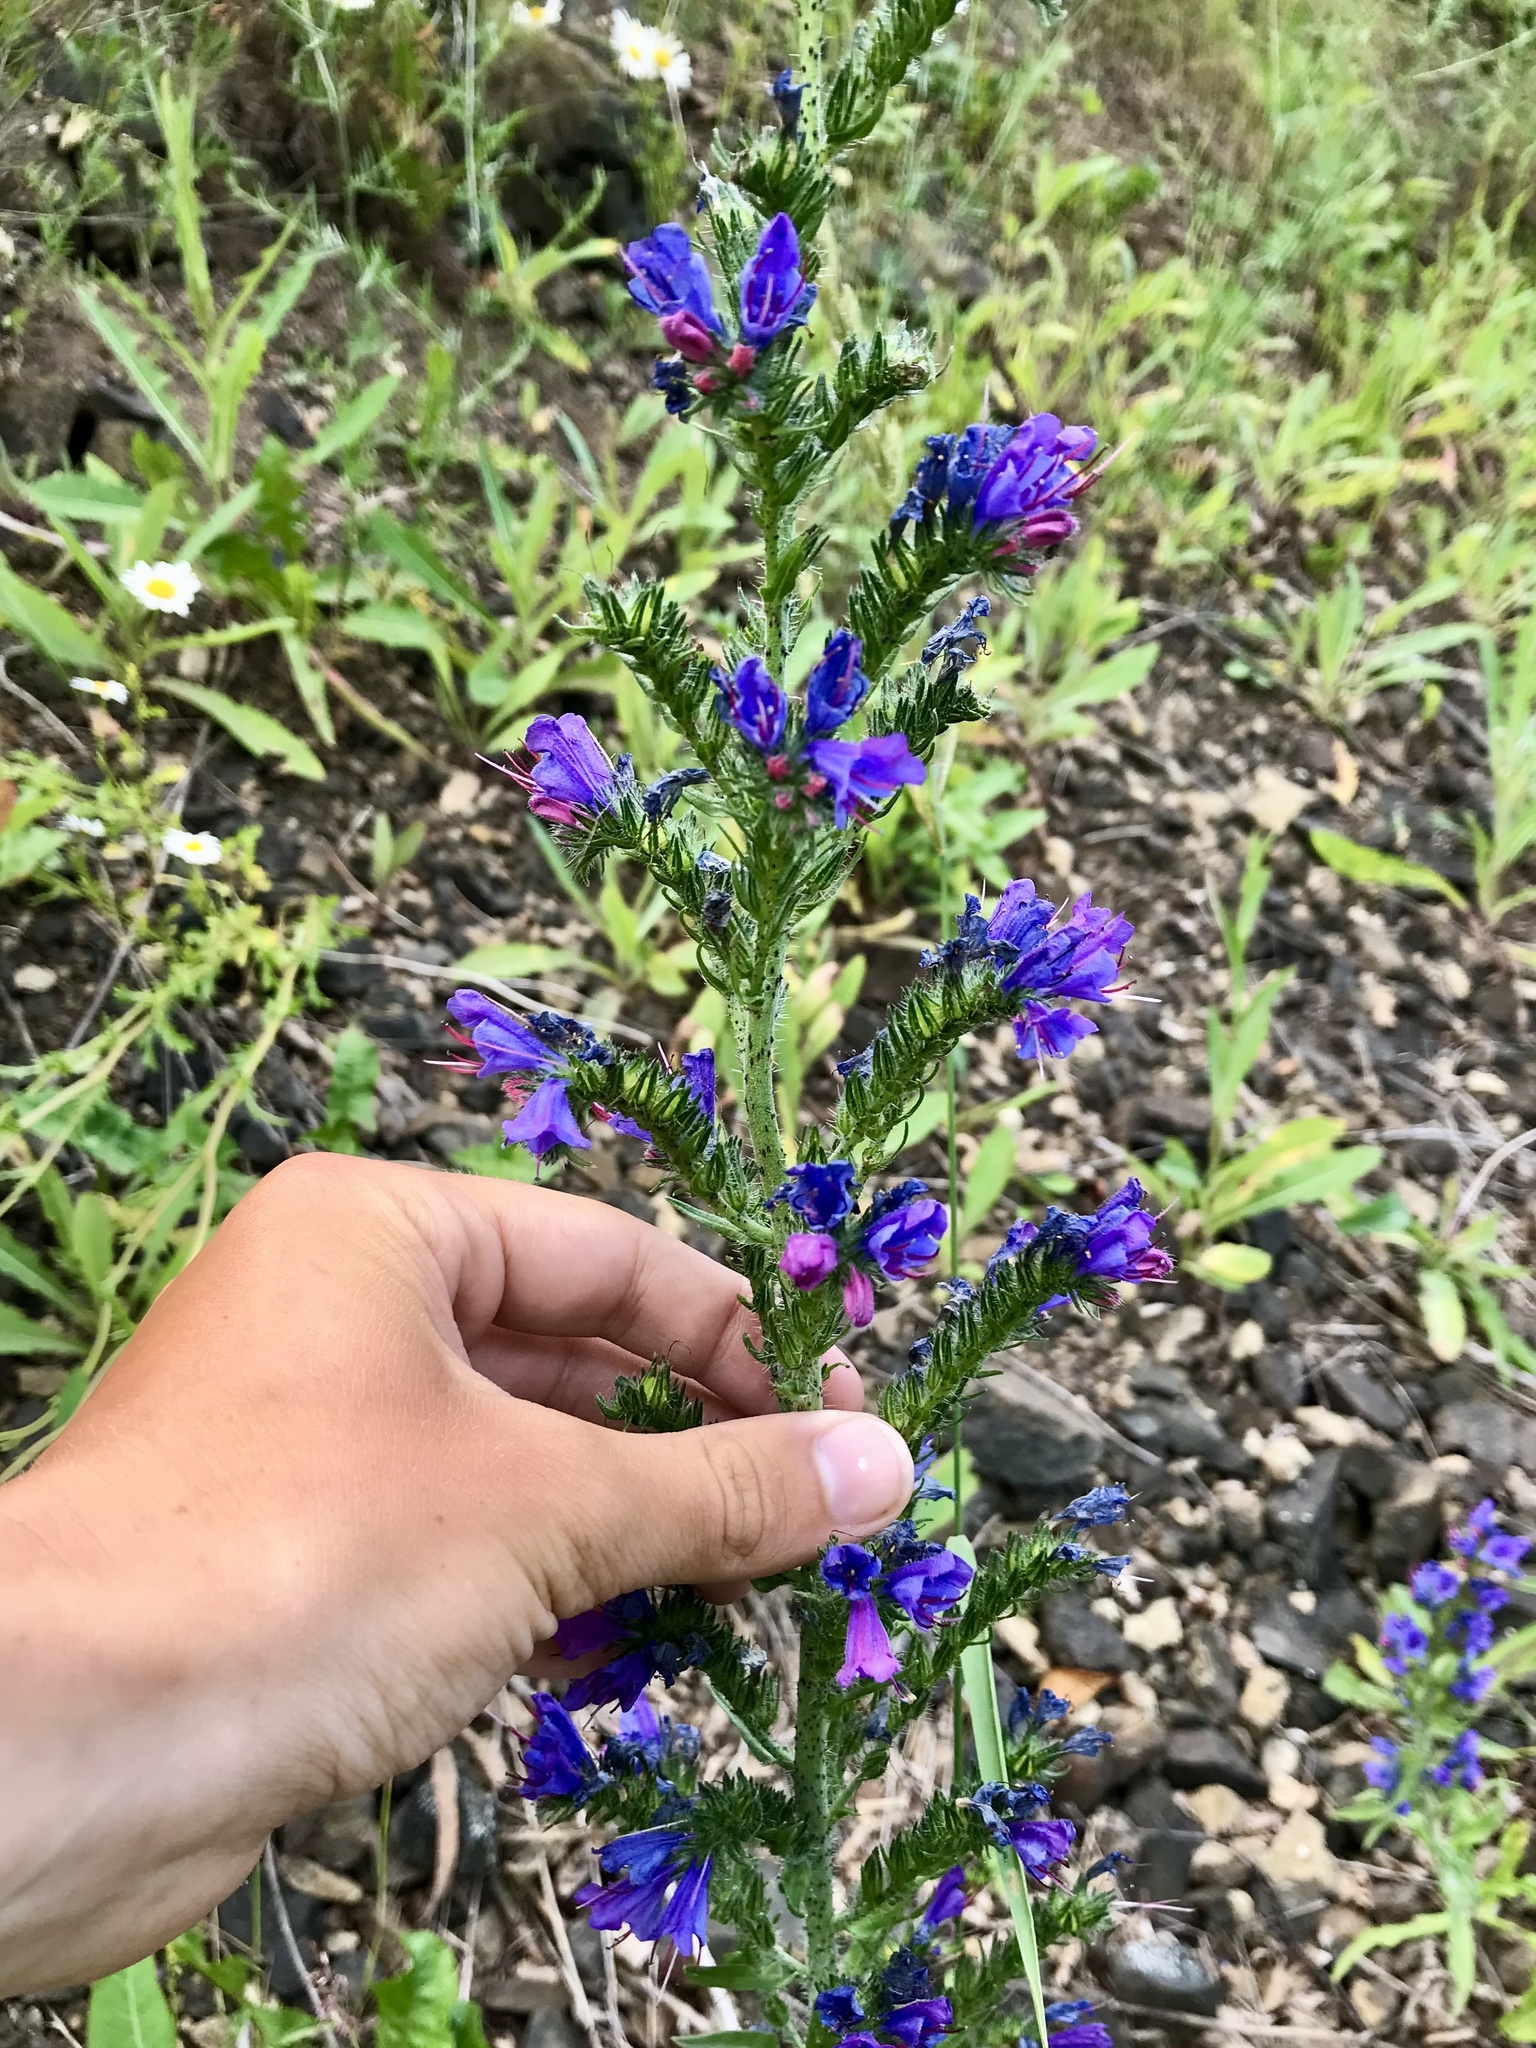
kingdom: Plantae
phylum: Tracheophyta
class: Magnoliopsida
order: Boraginales
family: Boraginaceae
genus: Echium
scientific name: Echium vulgare
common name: Common viper's bugloss
